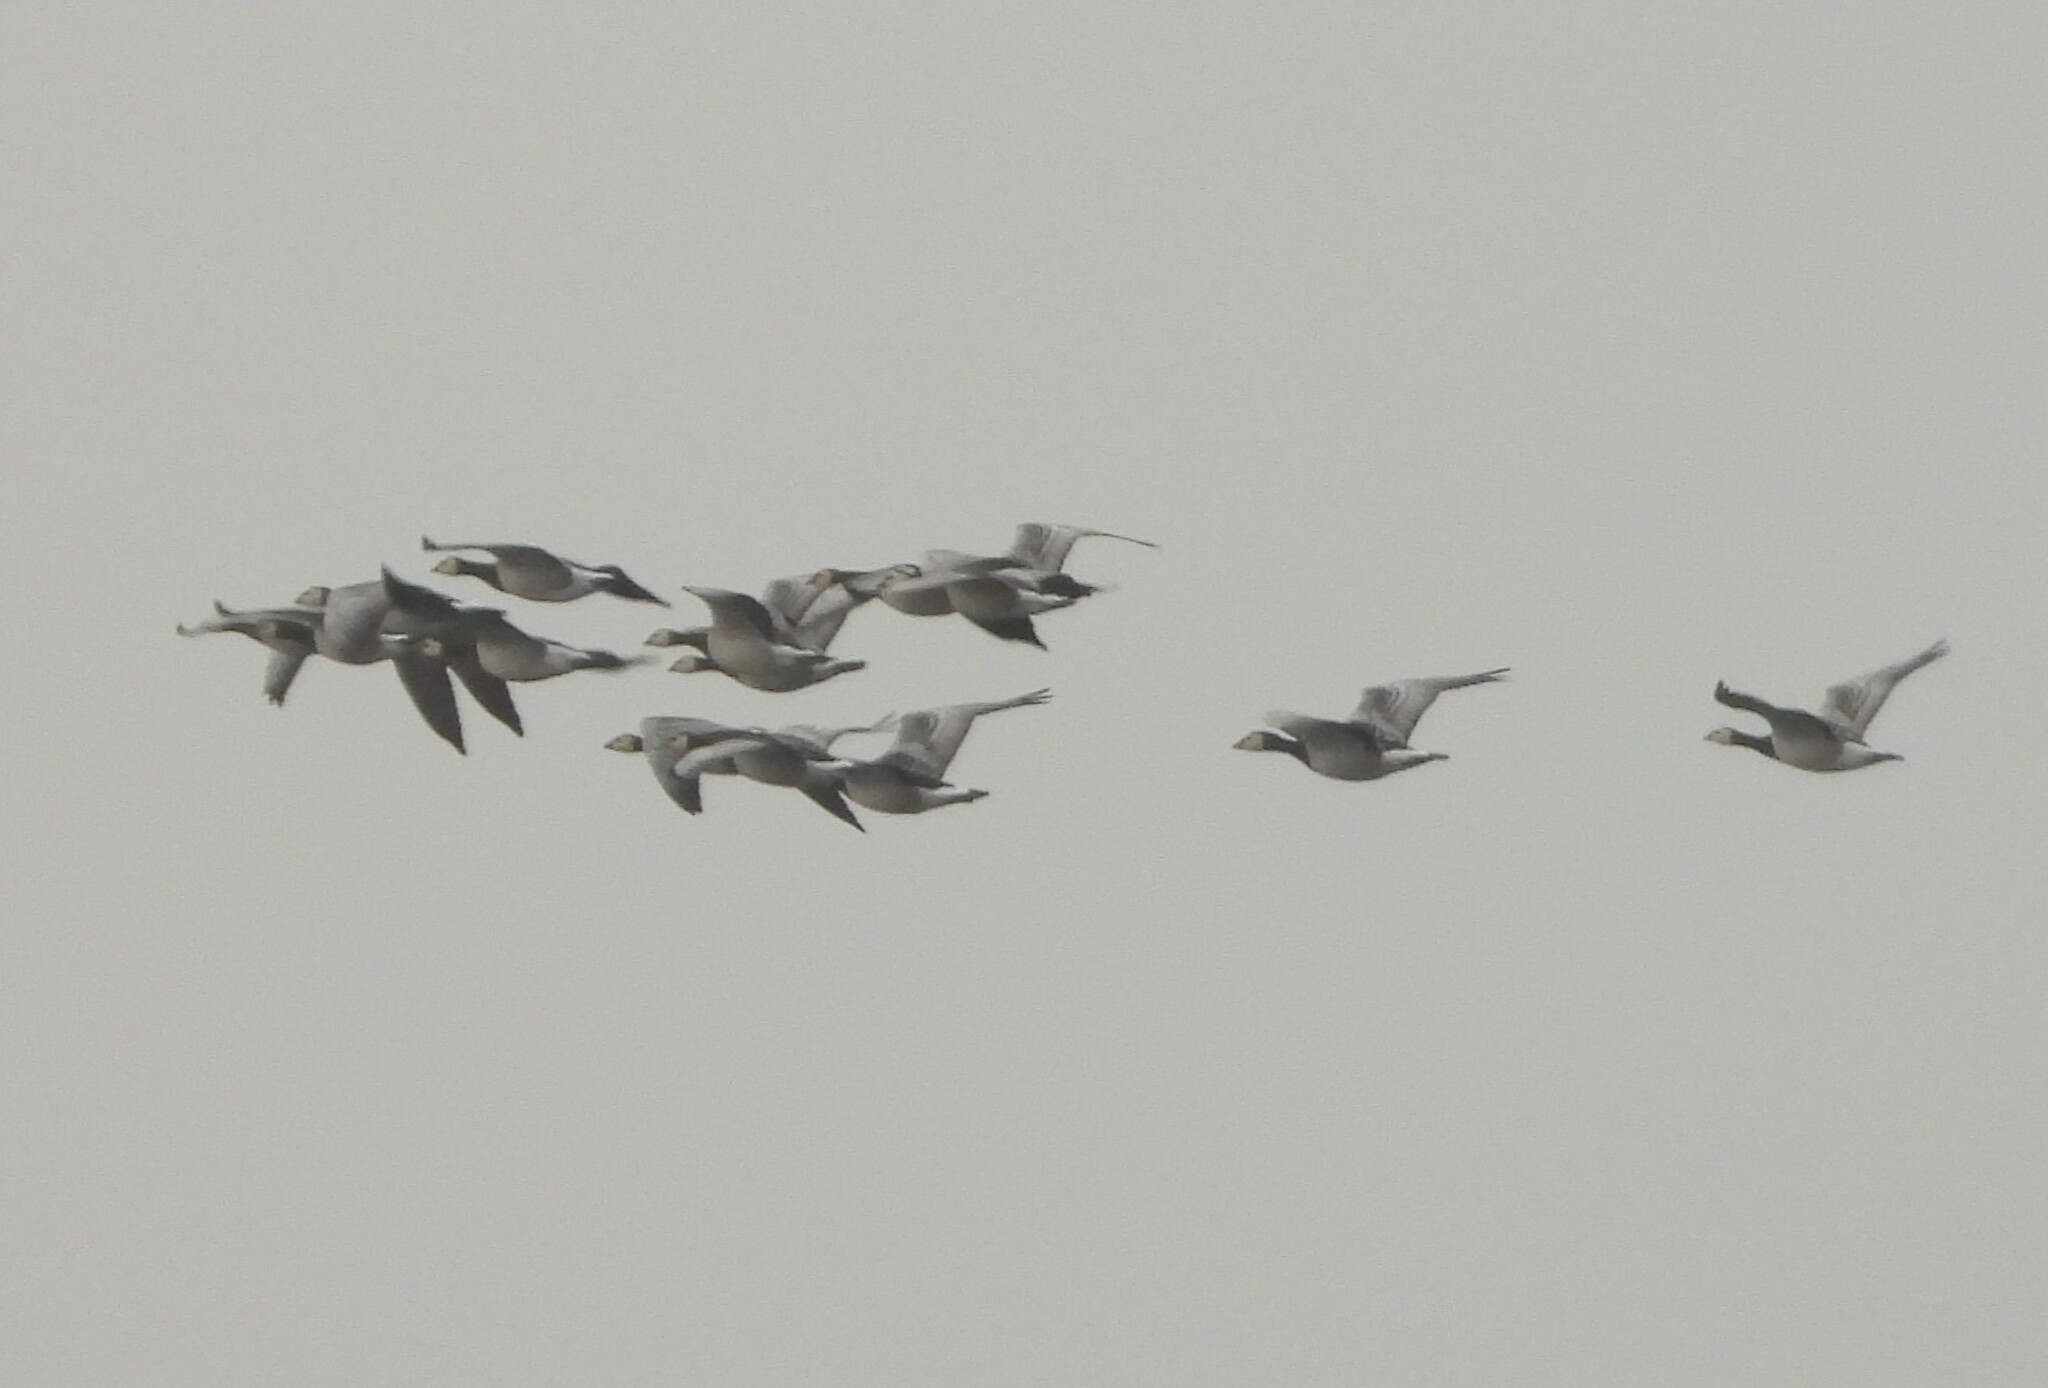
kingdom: Animalia
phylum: Chordata
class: Aves
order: Anseriformes
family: Anatidae
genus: Branta
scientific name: Branta leucopsis
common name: Barnacle goose
